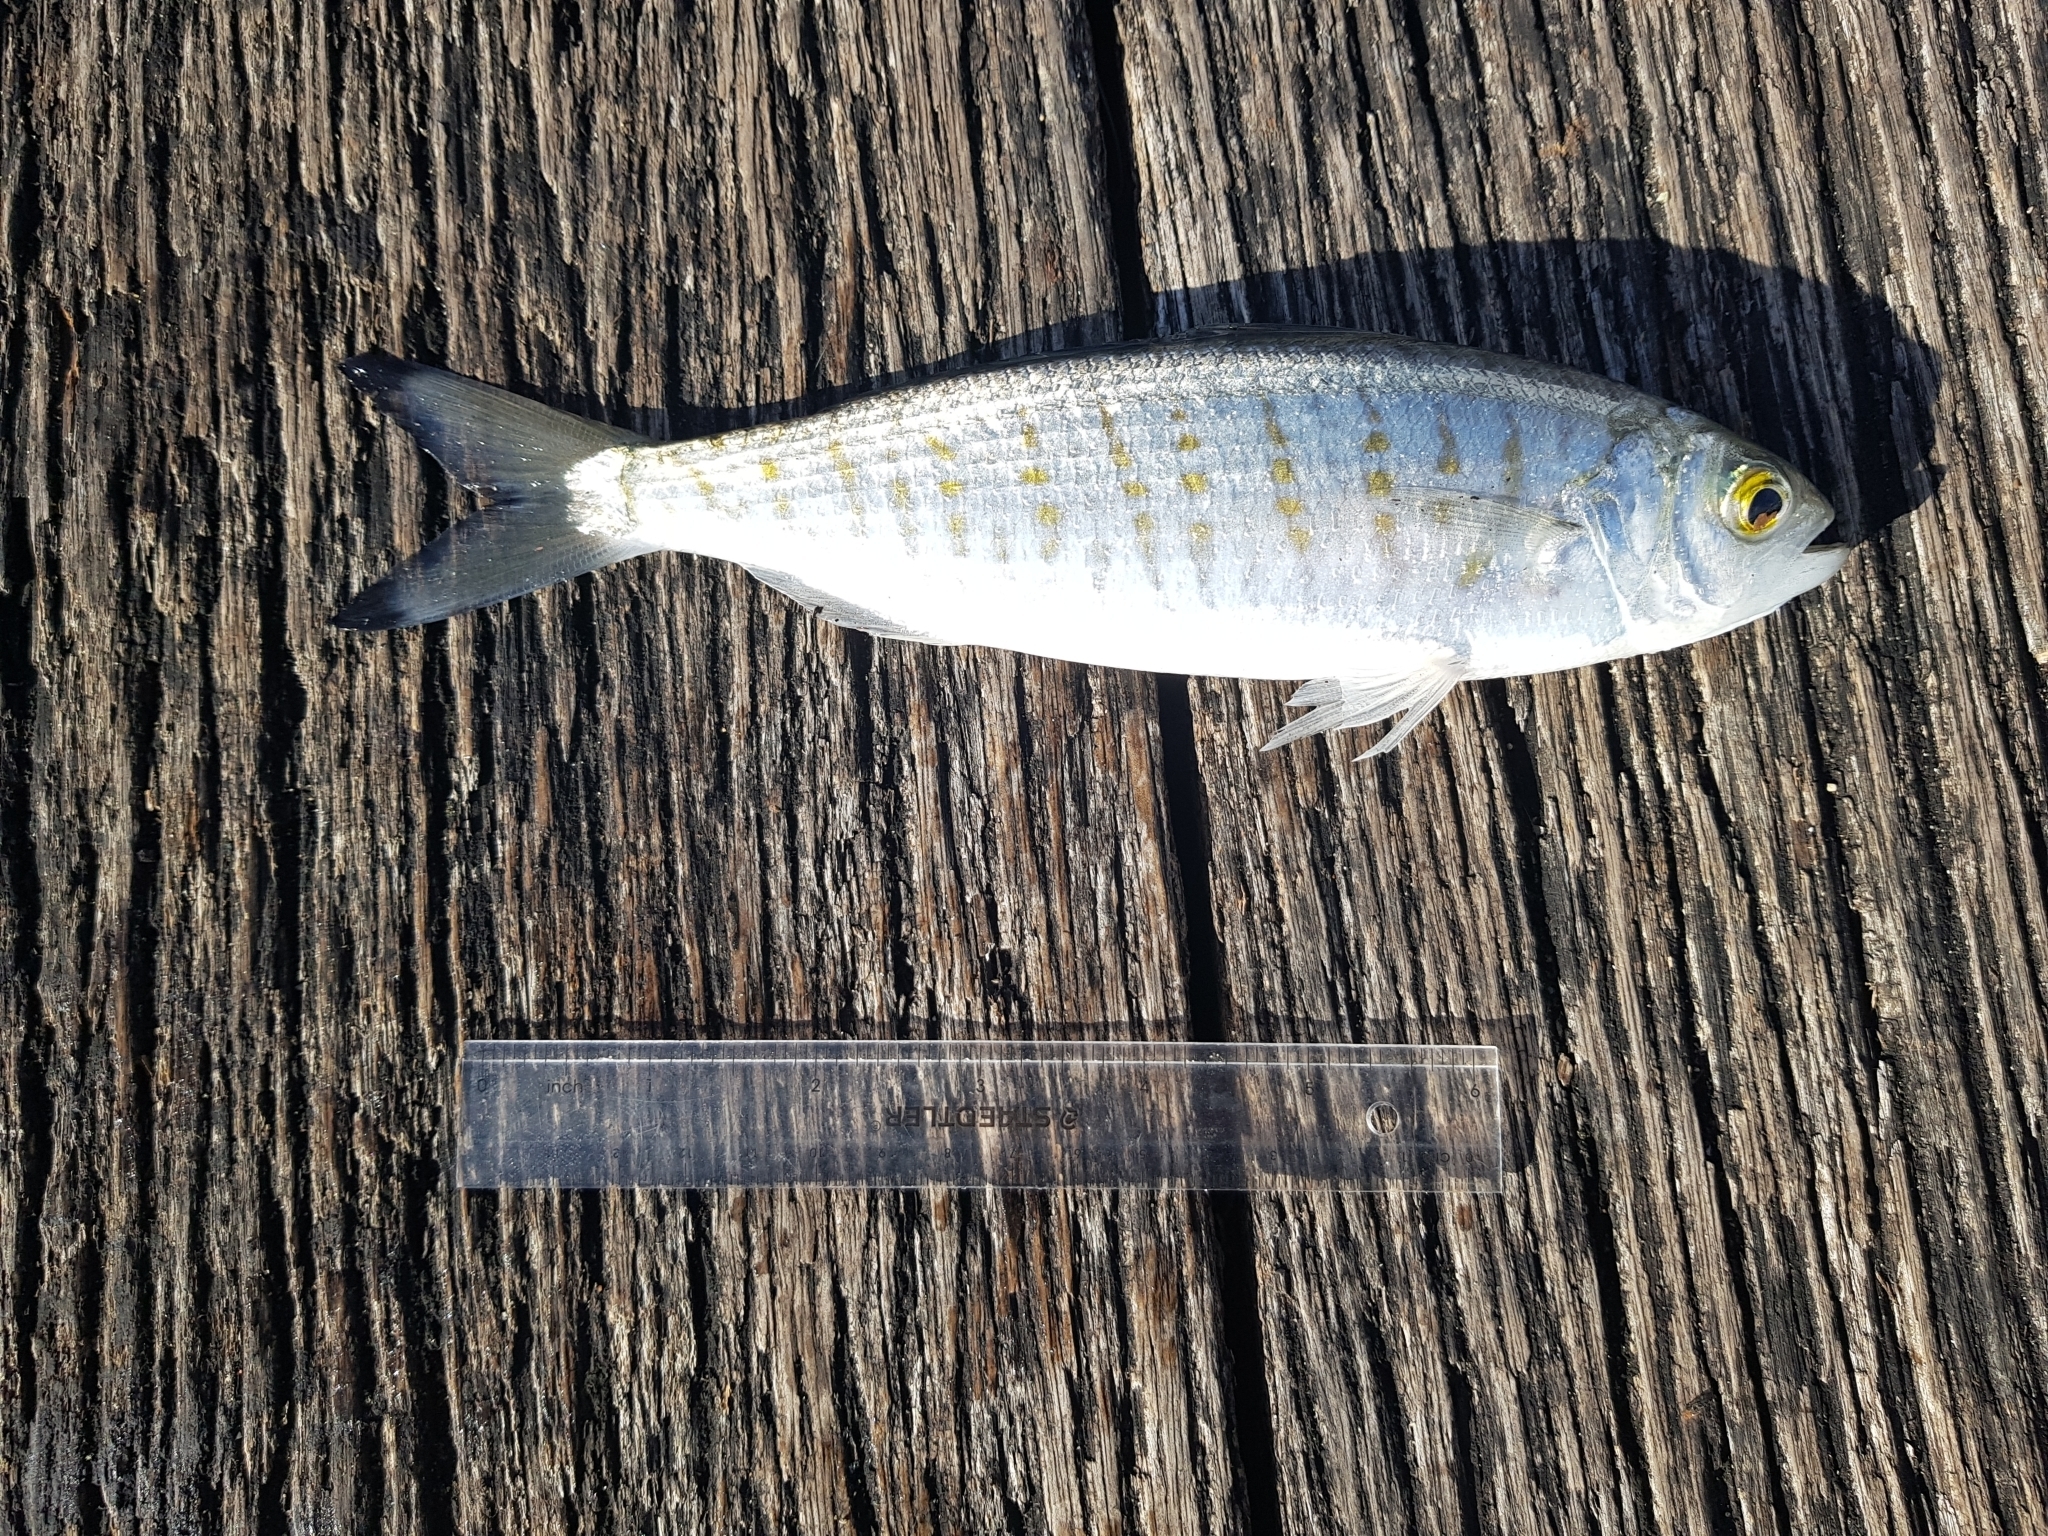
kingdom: Animalia
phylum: Chordata
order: Perciformes
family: Arripidae
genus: Arripis
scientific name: Arripis georgianus
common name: Australian herring
